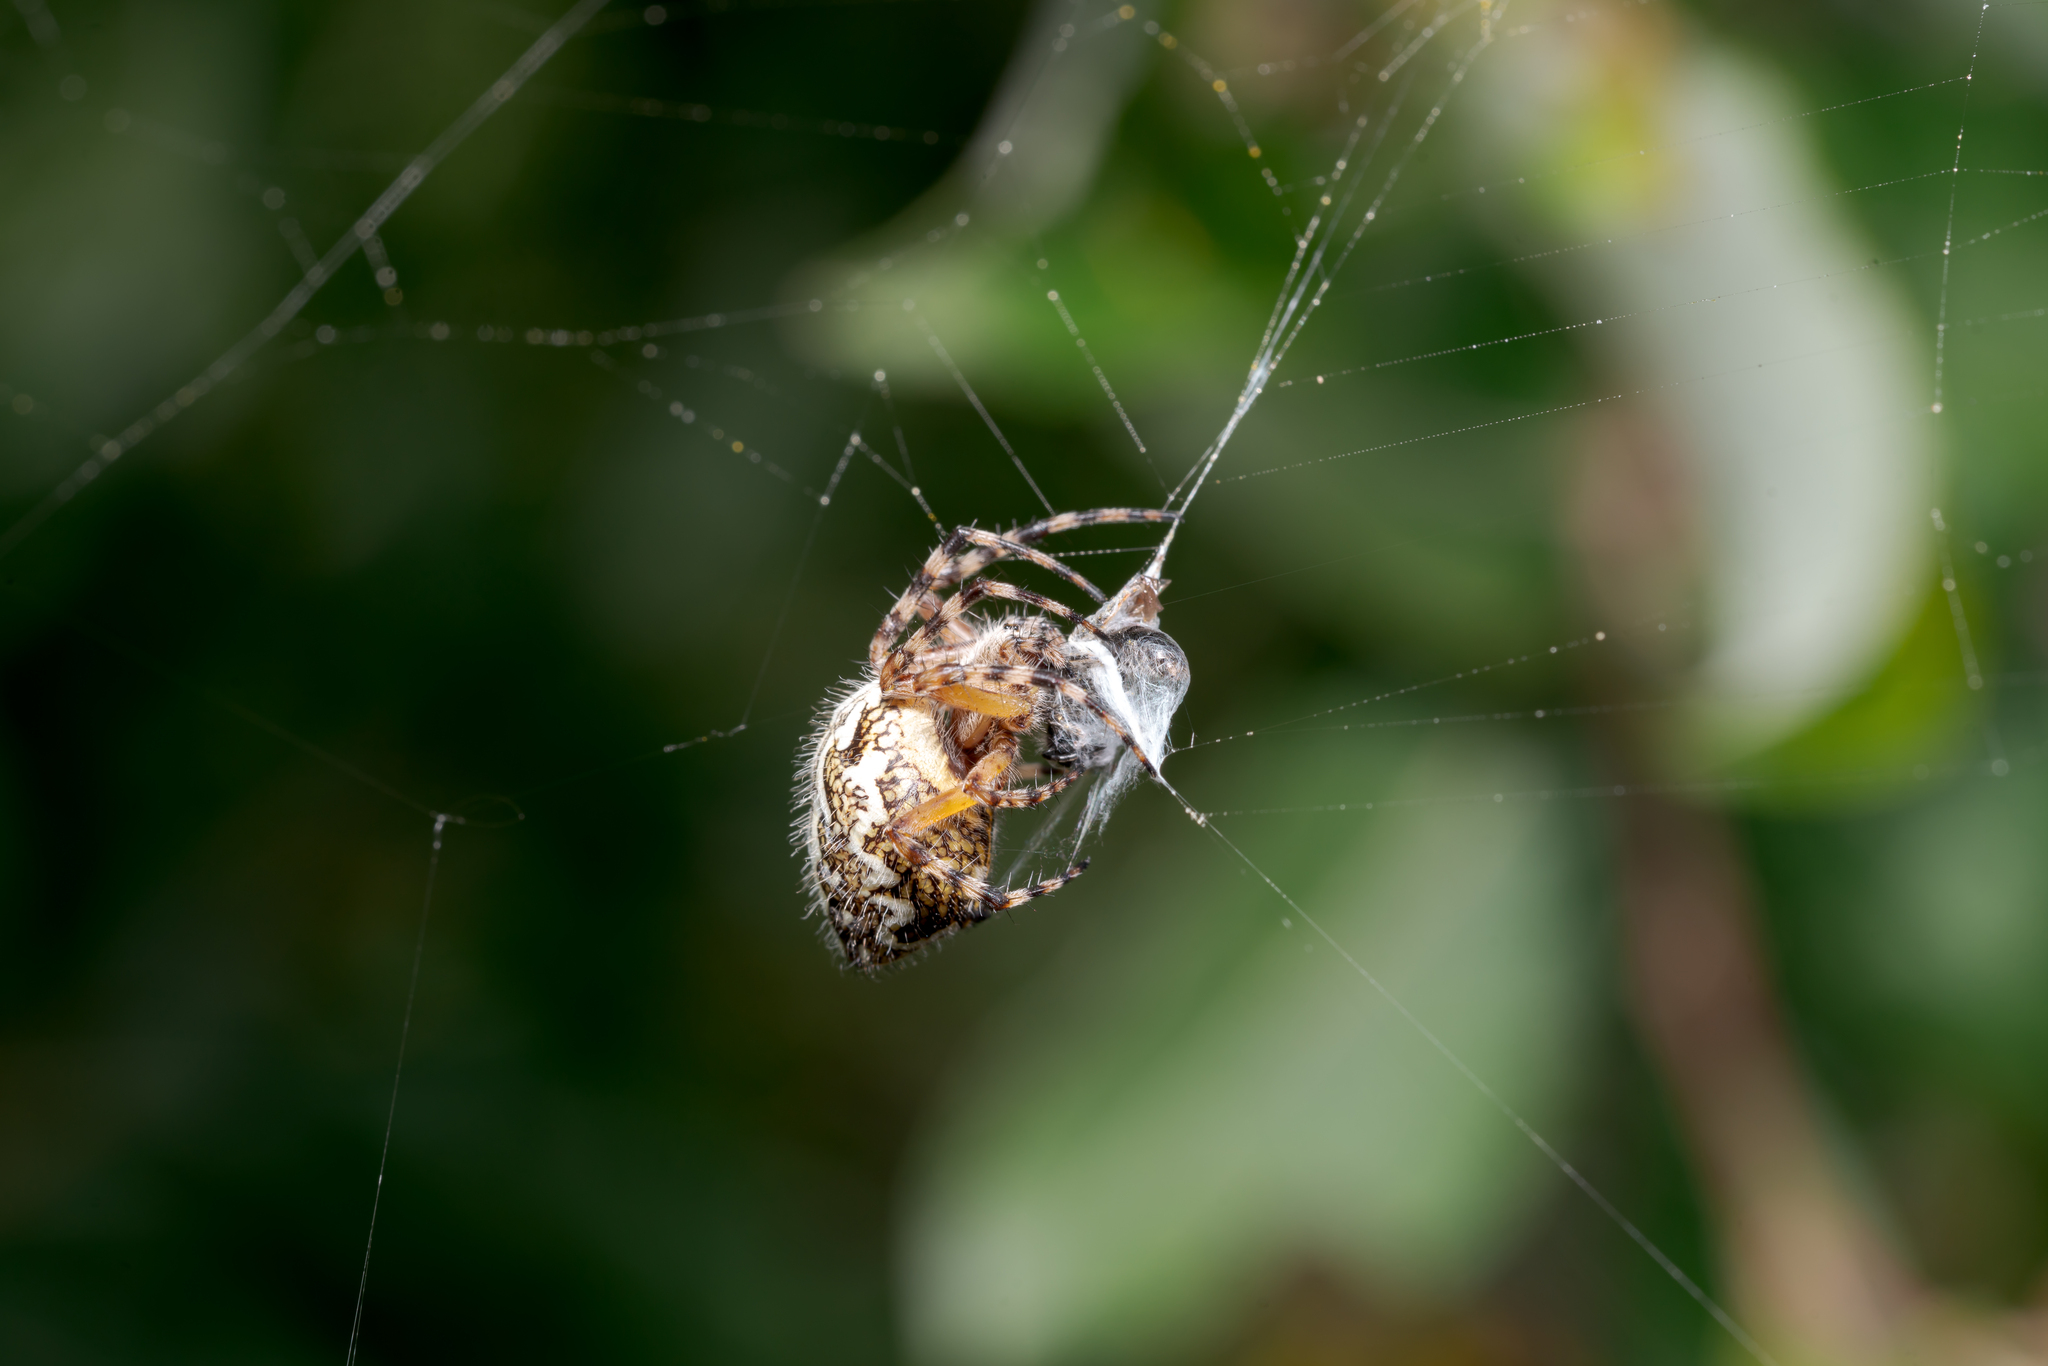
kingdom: Animalia
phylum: Arthropoda
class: Arachnida
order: Araneae
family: Araneidae
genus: Aculepeira
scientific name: Aculepeira ceropegia
